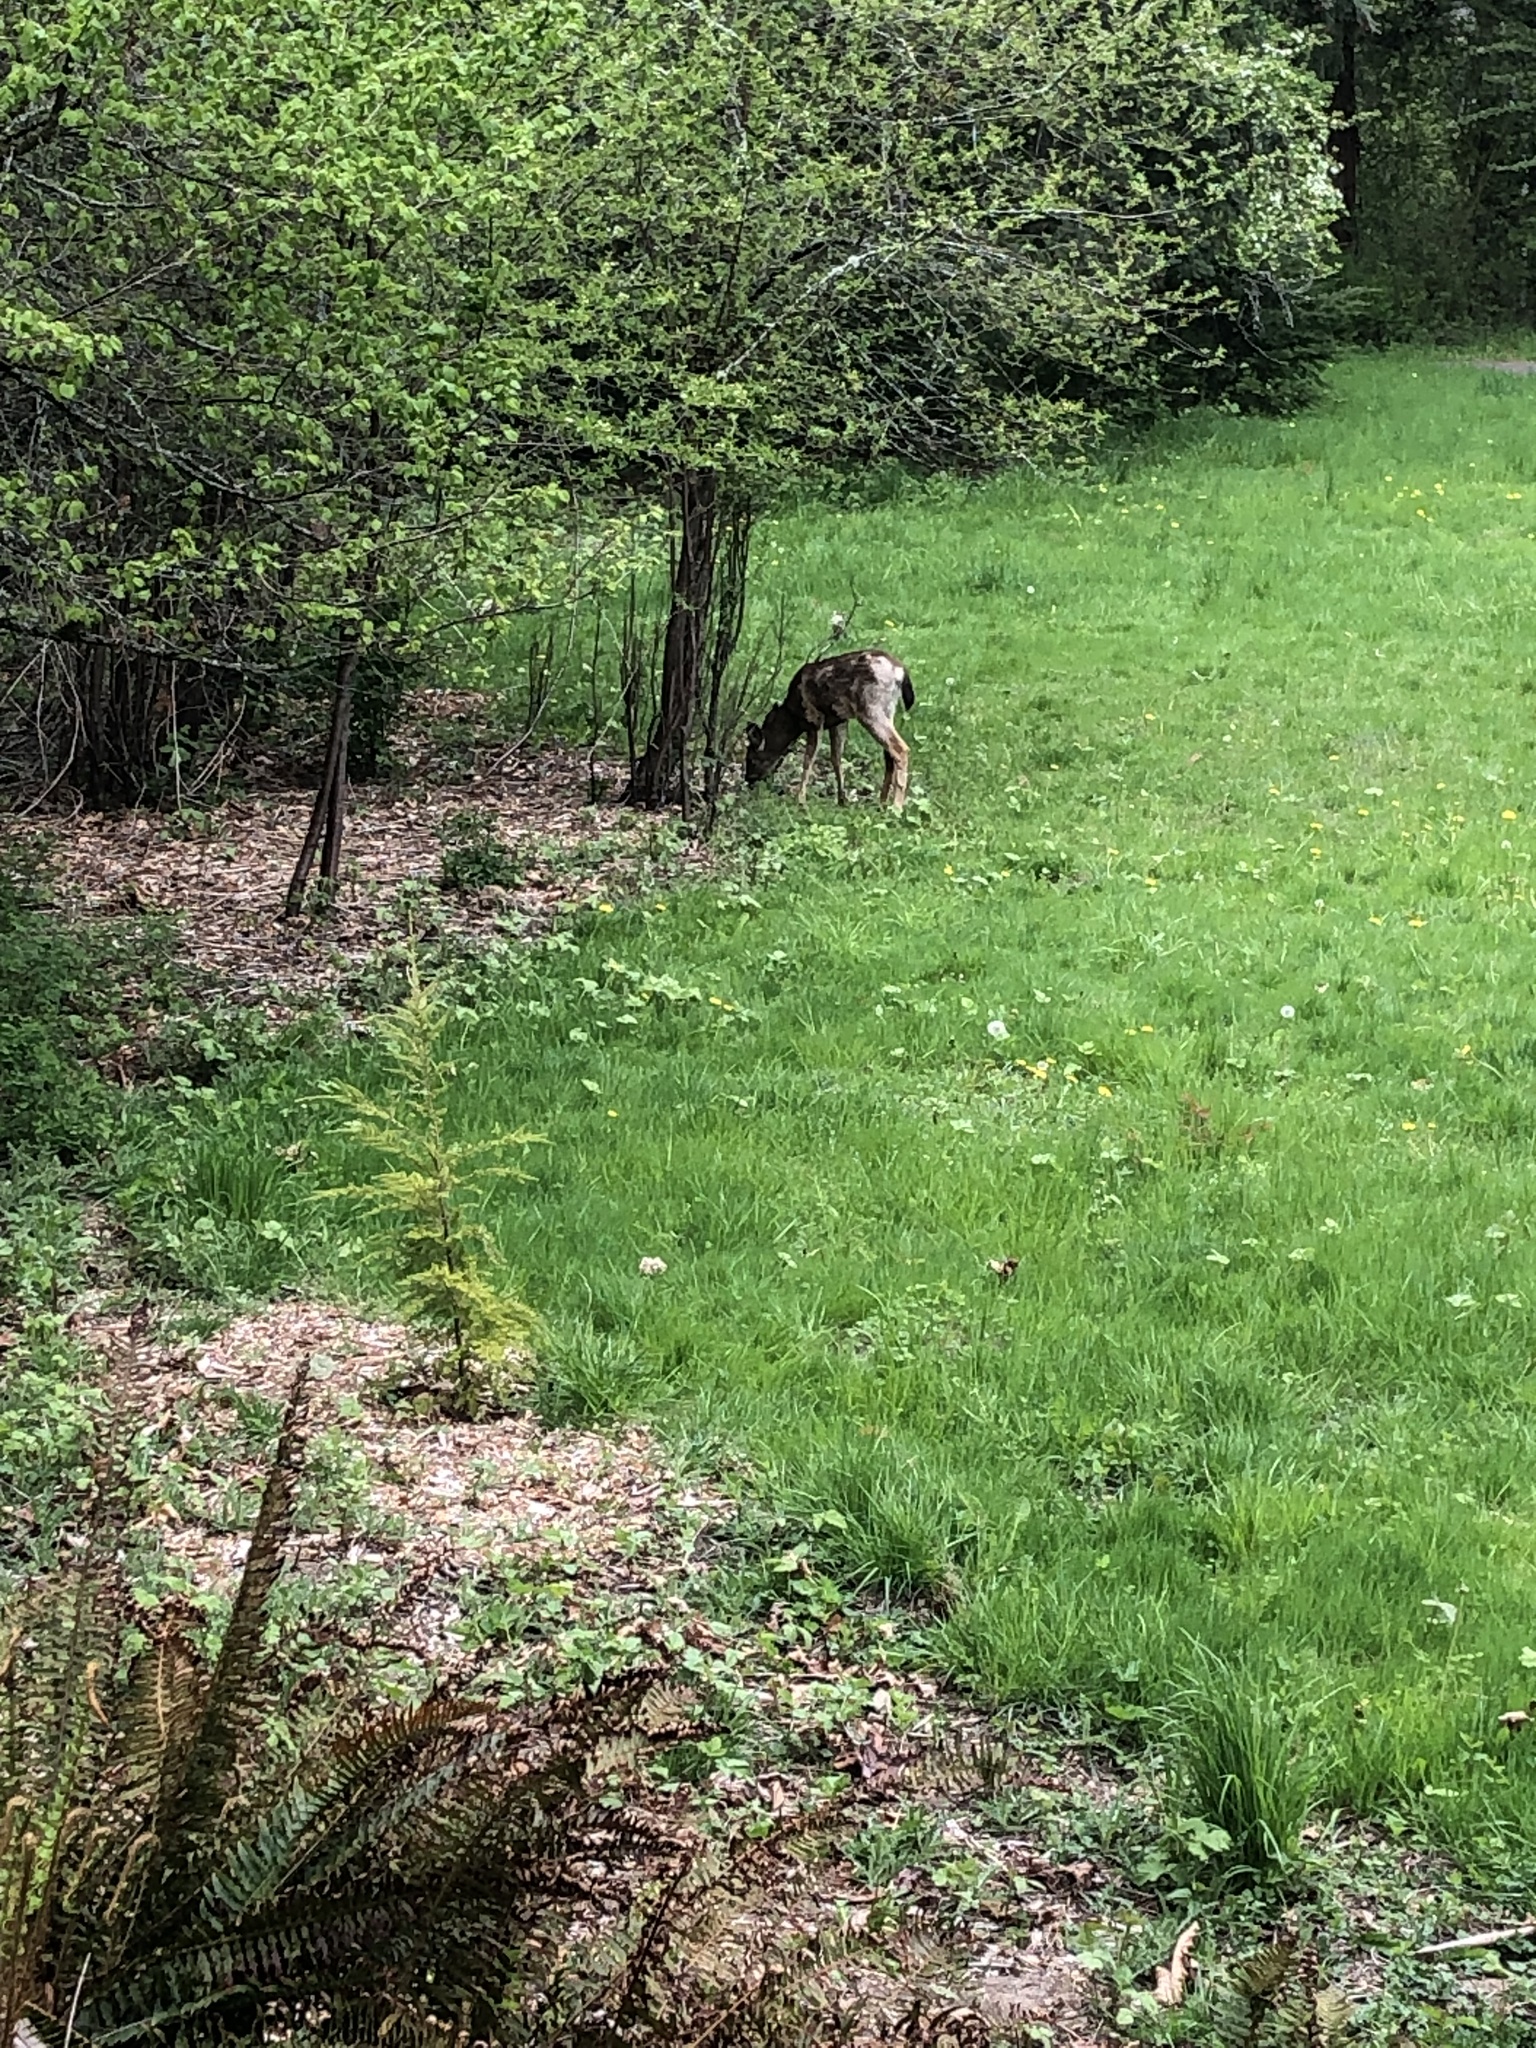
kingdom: Animalia
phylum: Chordata
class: Mammalia
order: Artiodactyla
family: Cervidae
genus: Odocoileus
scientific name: Odocoileus hemionus
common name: Mule deer
